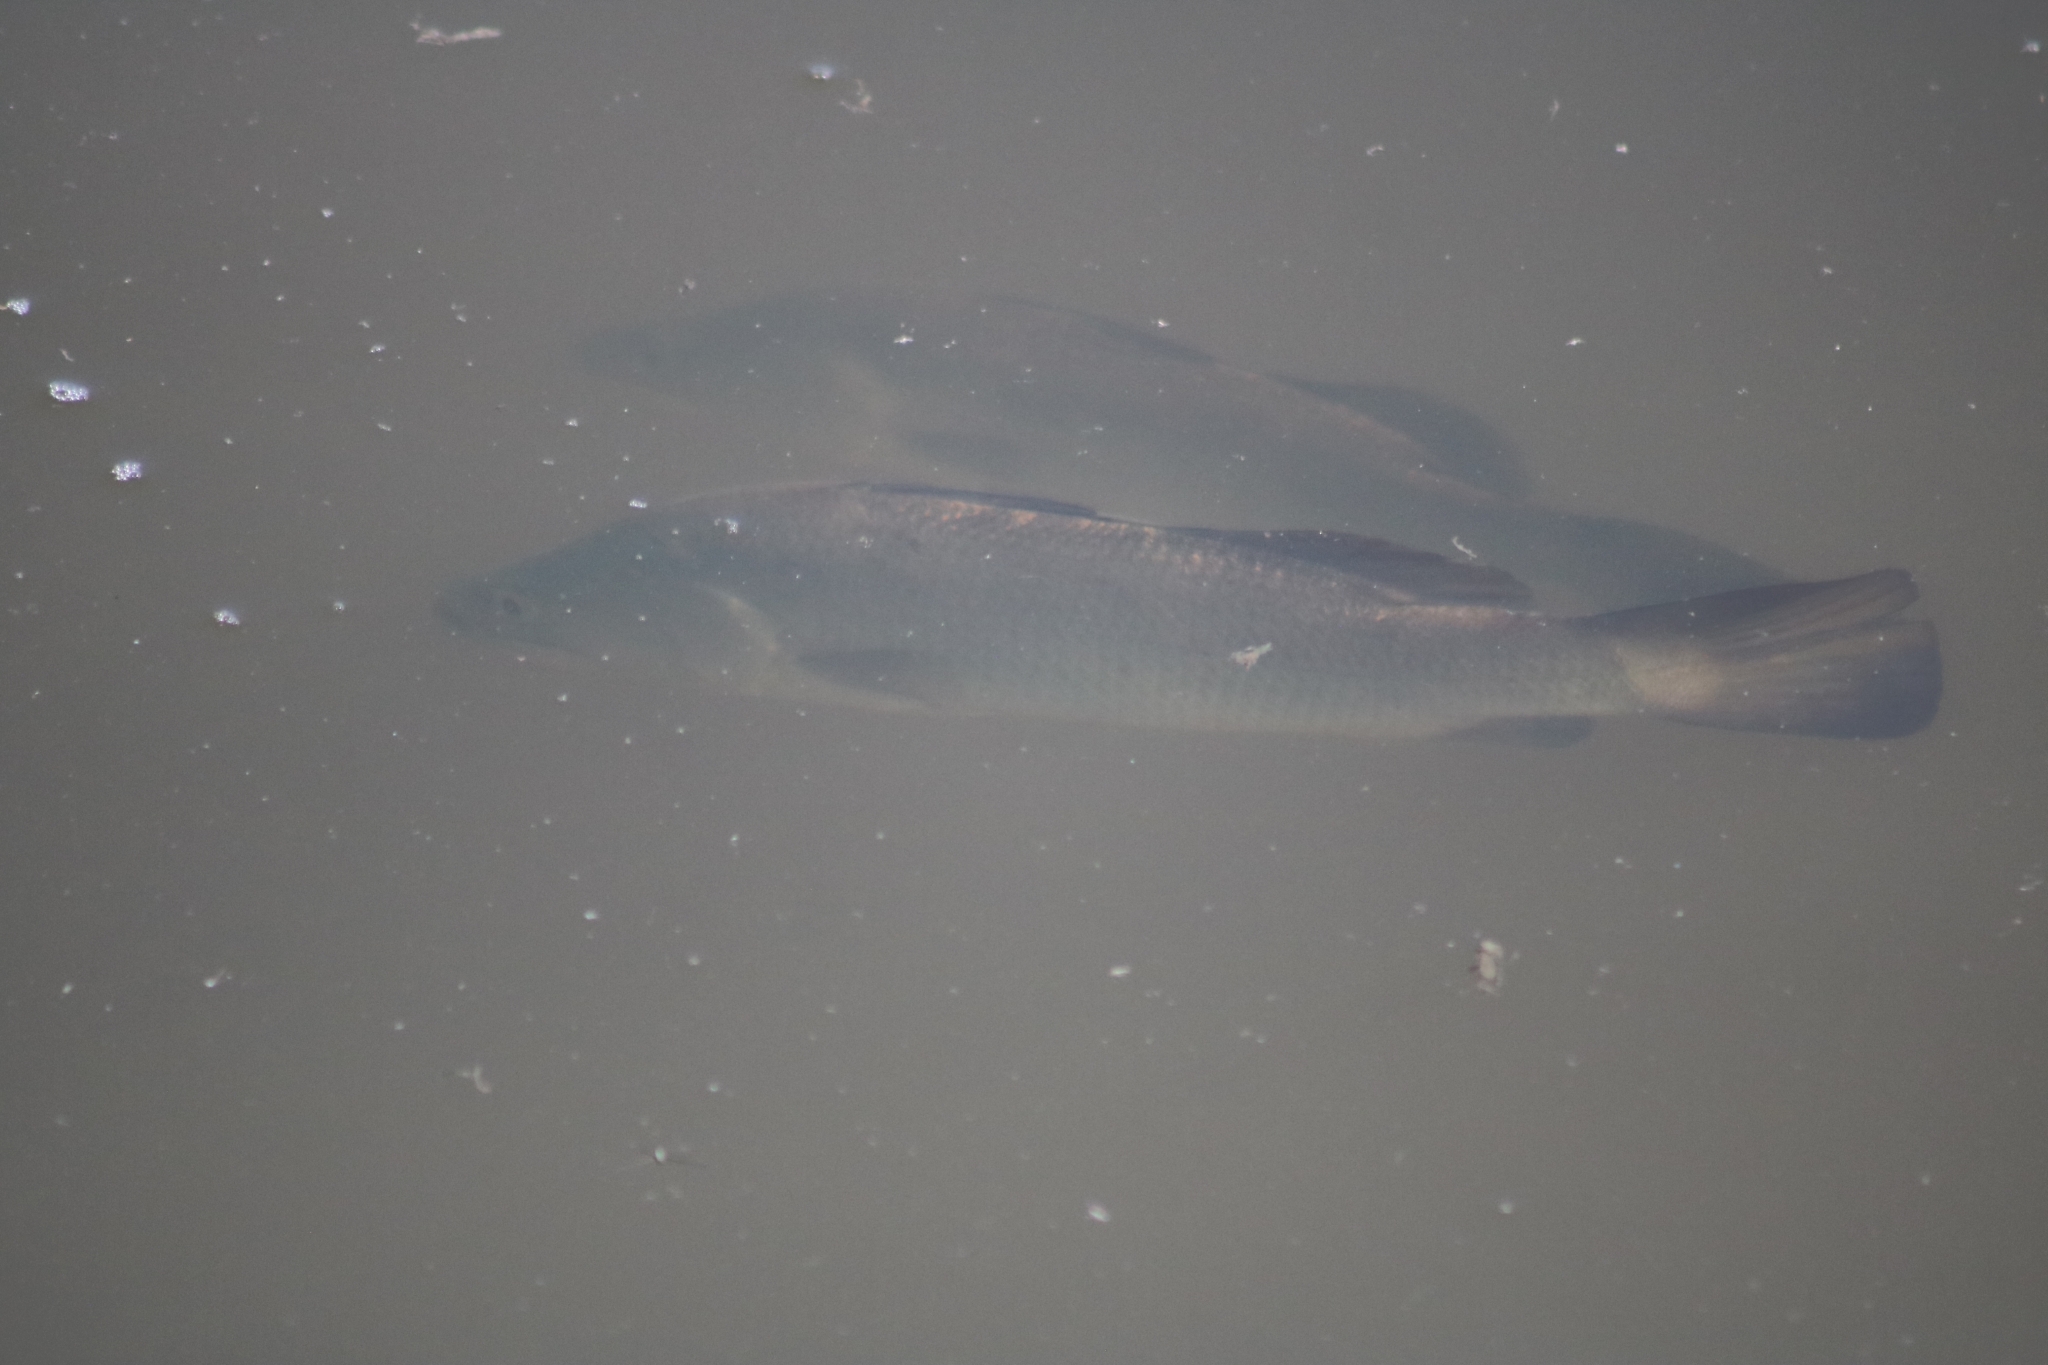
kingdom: Animalia
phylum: Chordata
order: Perciformes
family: Latidae
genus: Lates
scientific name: Lates calcarifer
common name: Barramundi
